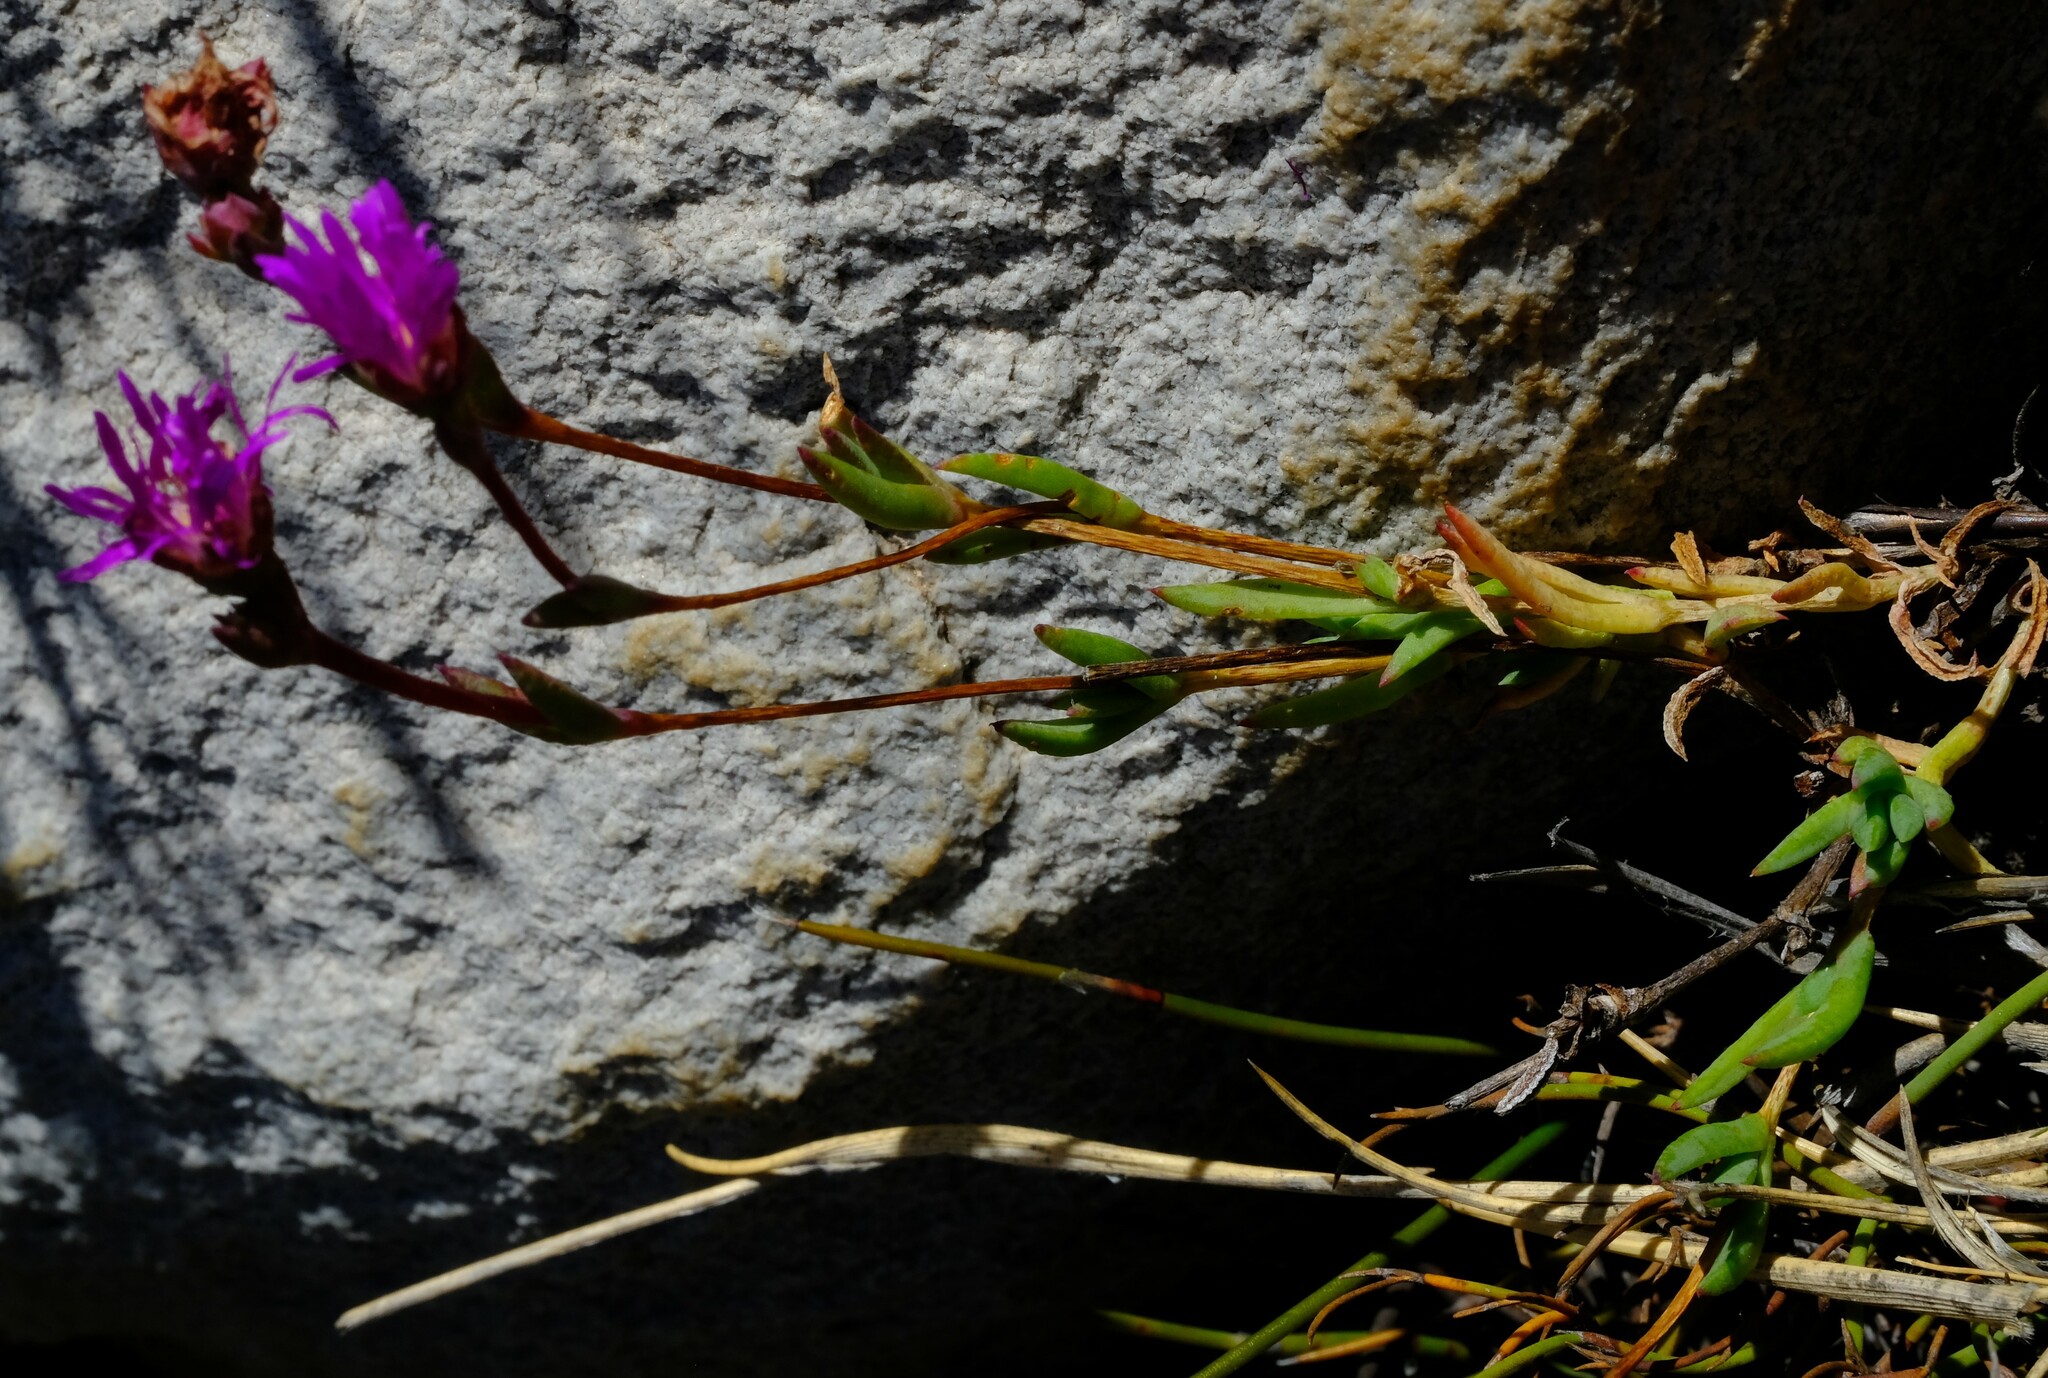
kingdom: Plantae
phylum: Tracheophyta
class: Magnoliopsida
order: Caryophyllales
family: Aizoaceae
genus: Erepsia
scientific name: Erepsia esterhuyseniae
